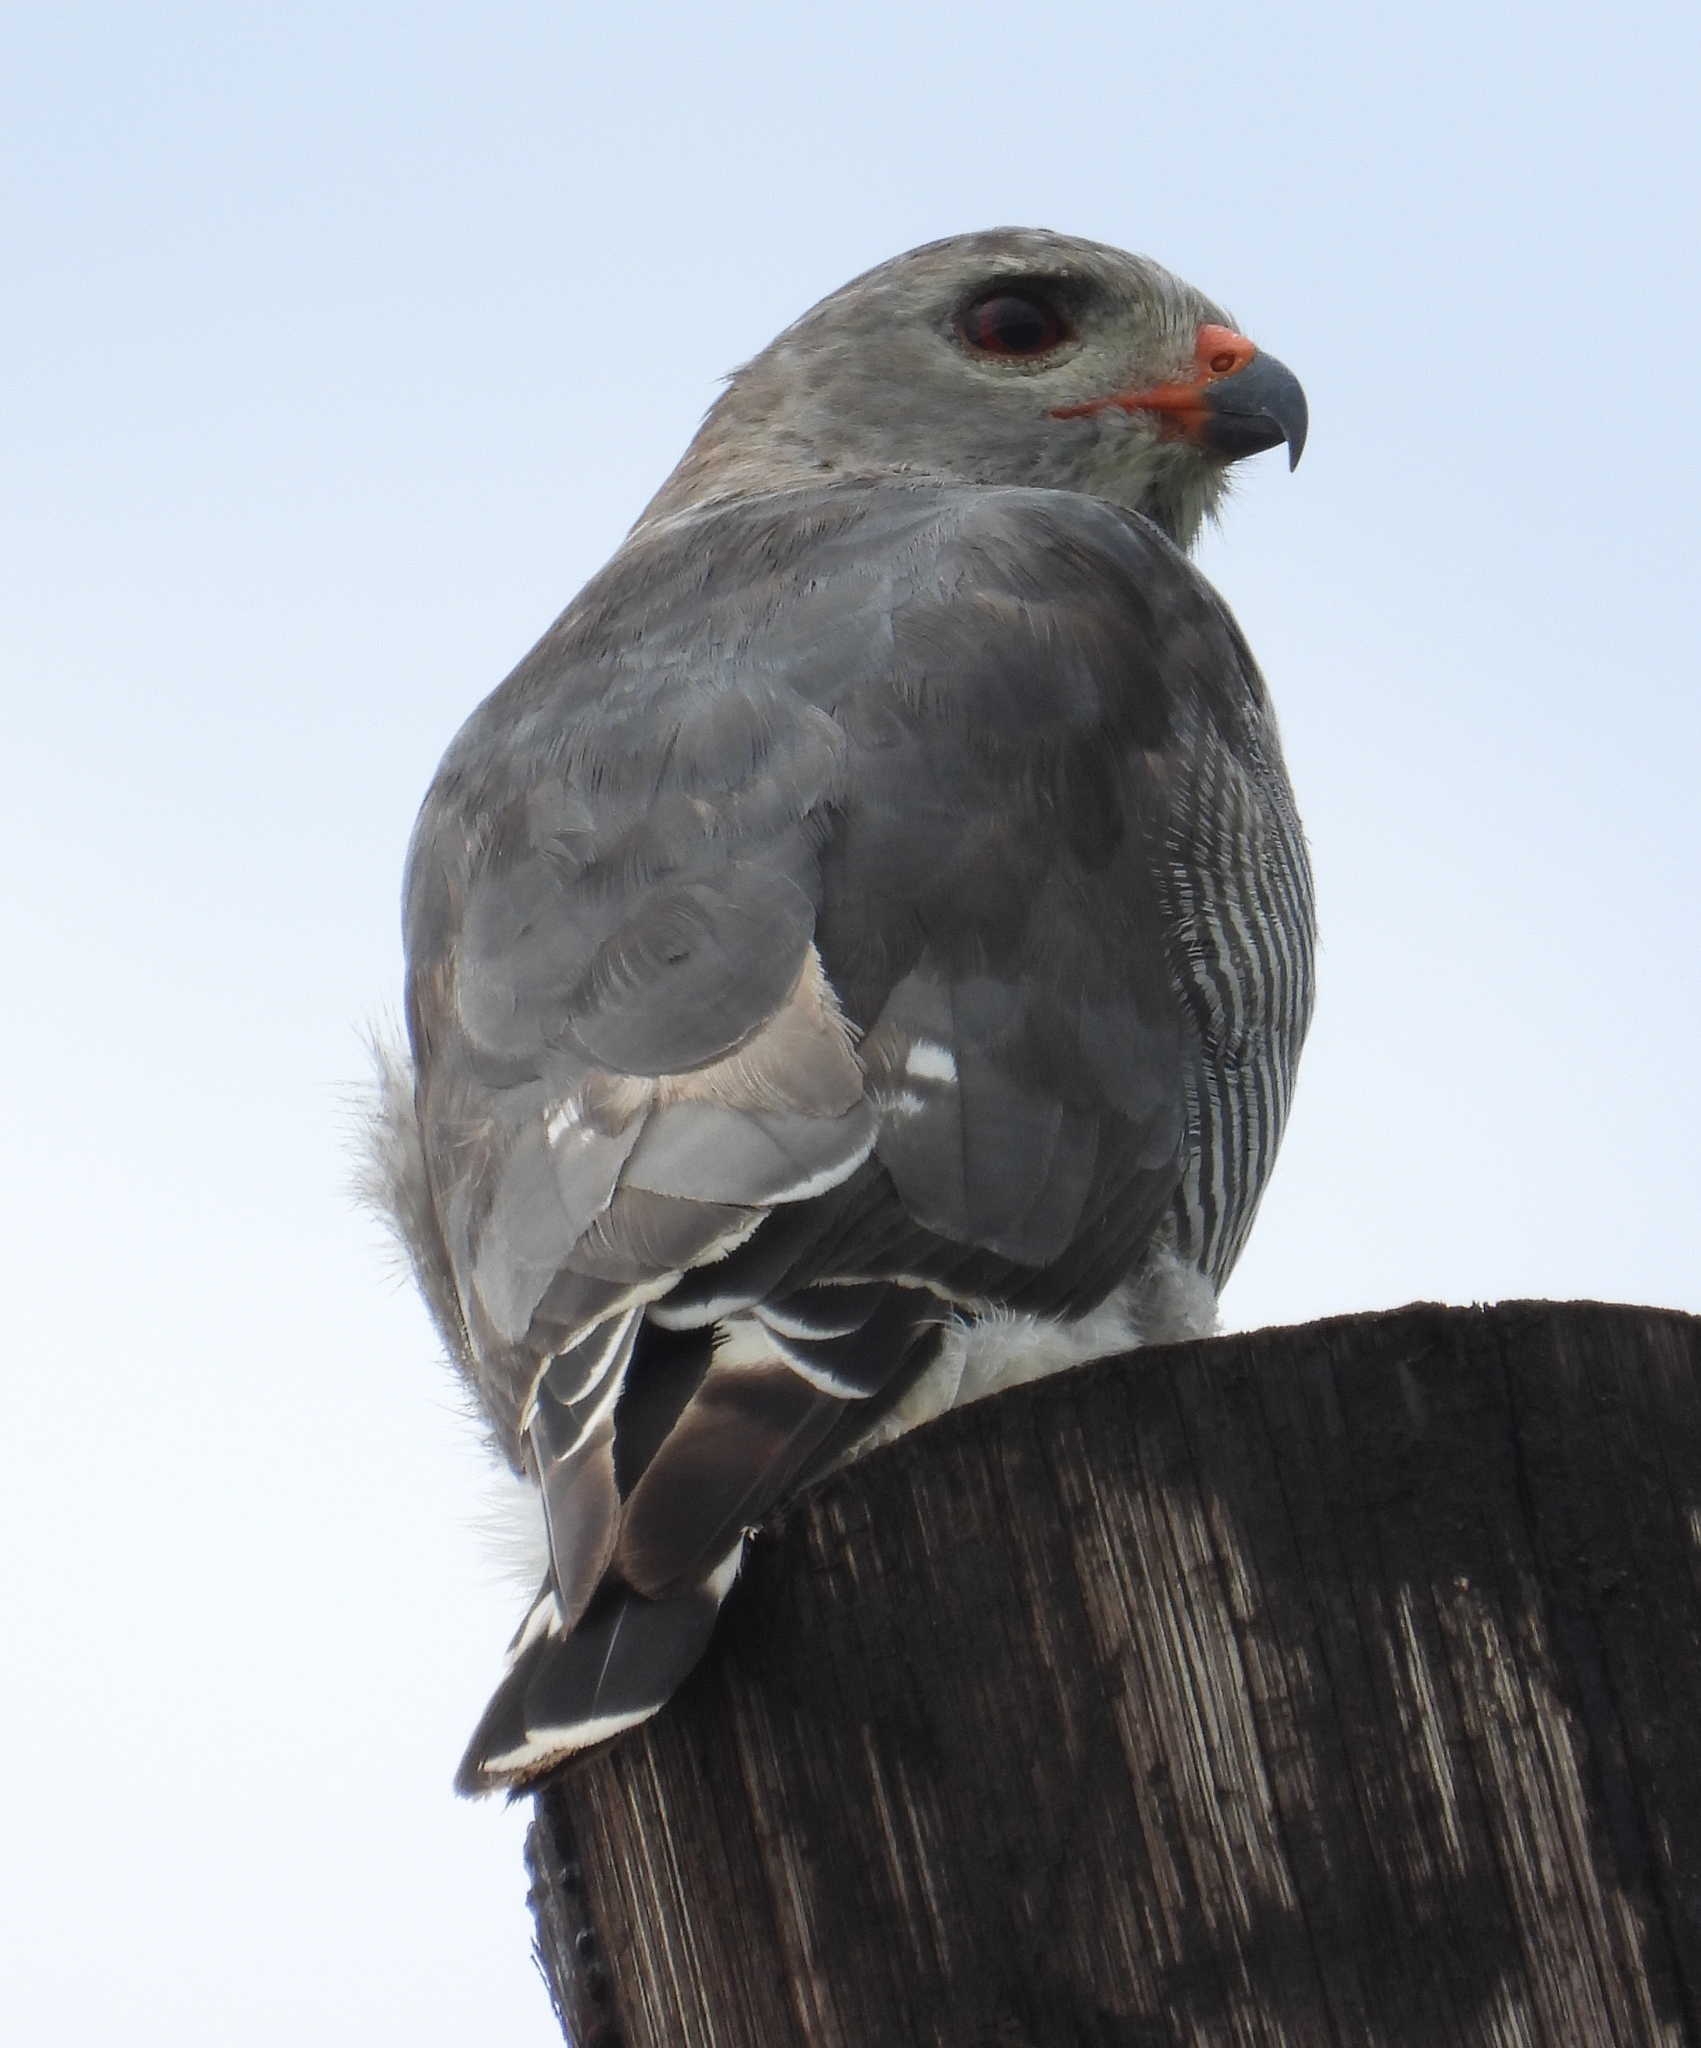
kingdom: Animalia
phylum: Chordata
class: Aves
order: Accipitriformes
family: Accipitridae
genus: Kaupifalco
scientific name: Kaupifalco monogrammicus
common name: Lizard buzzard
